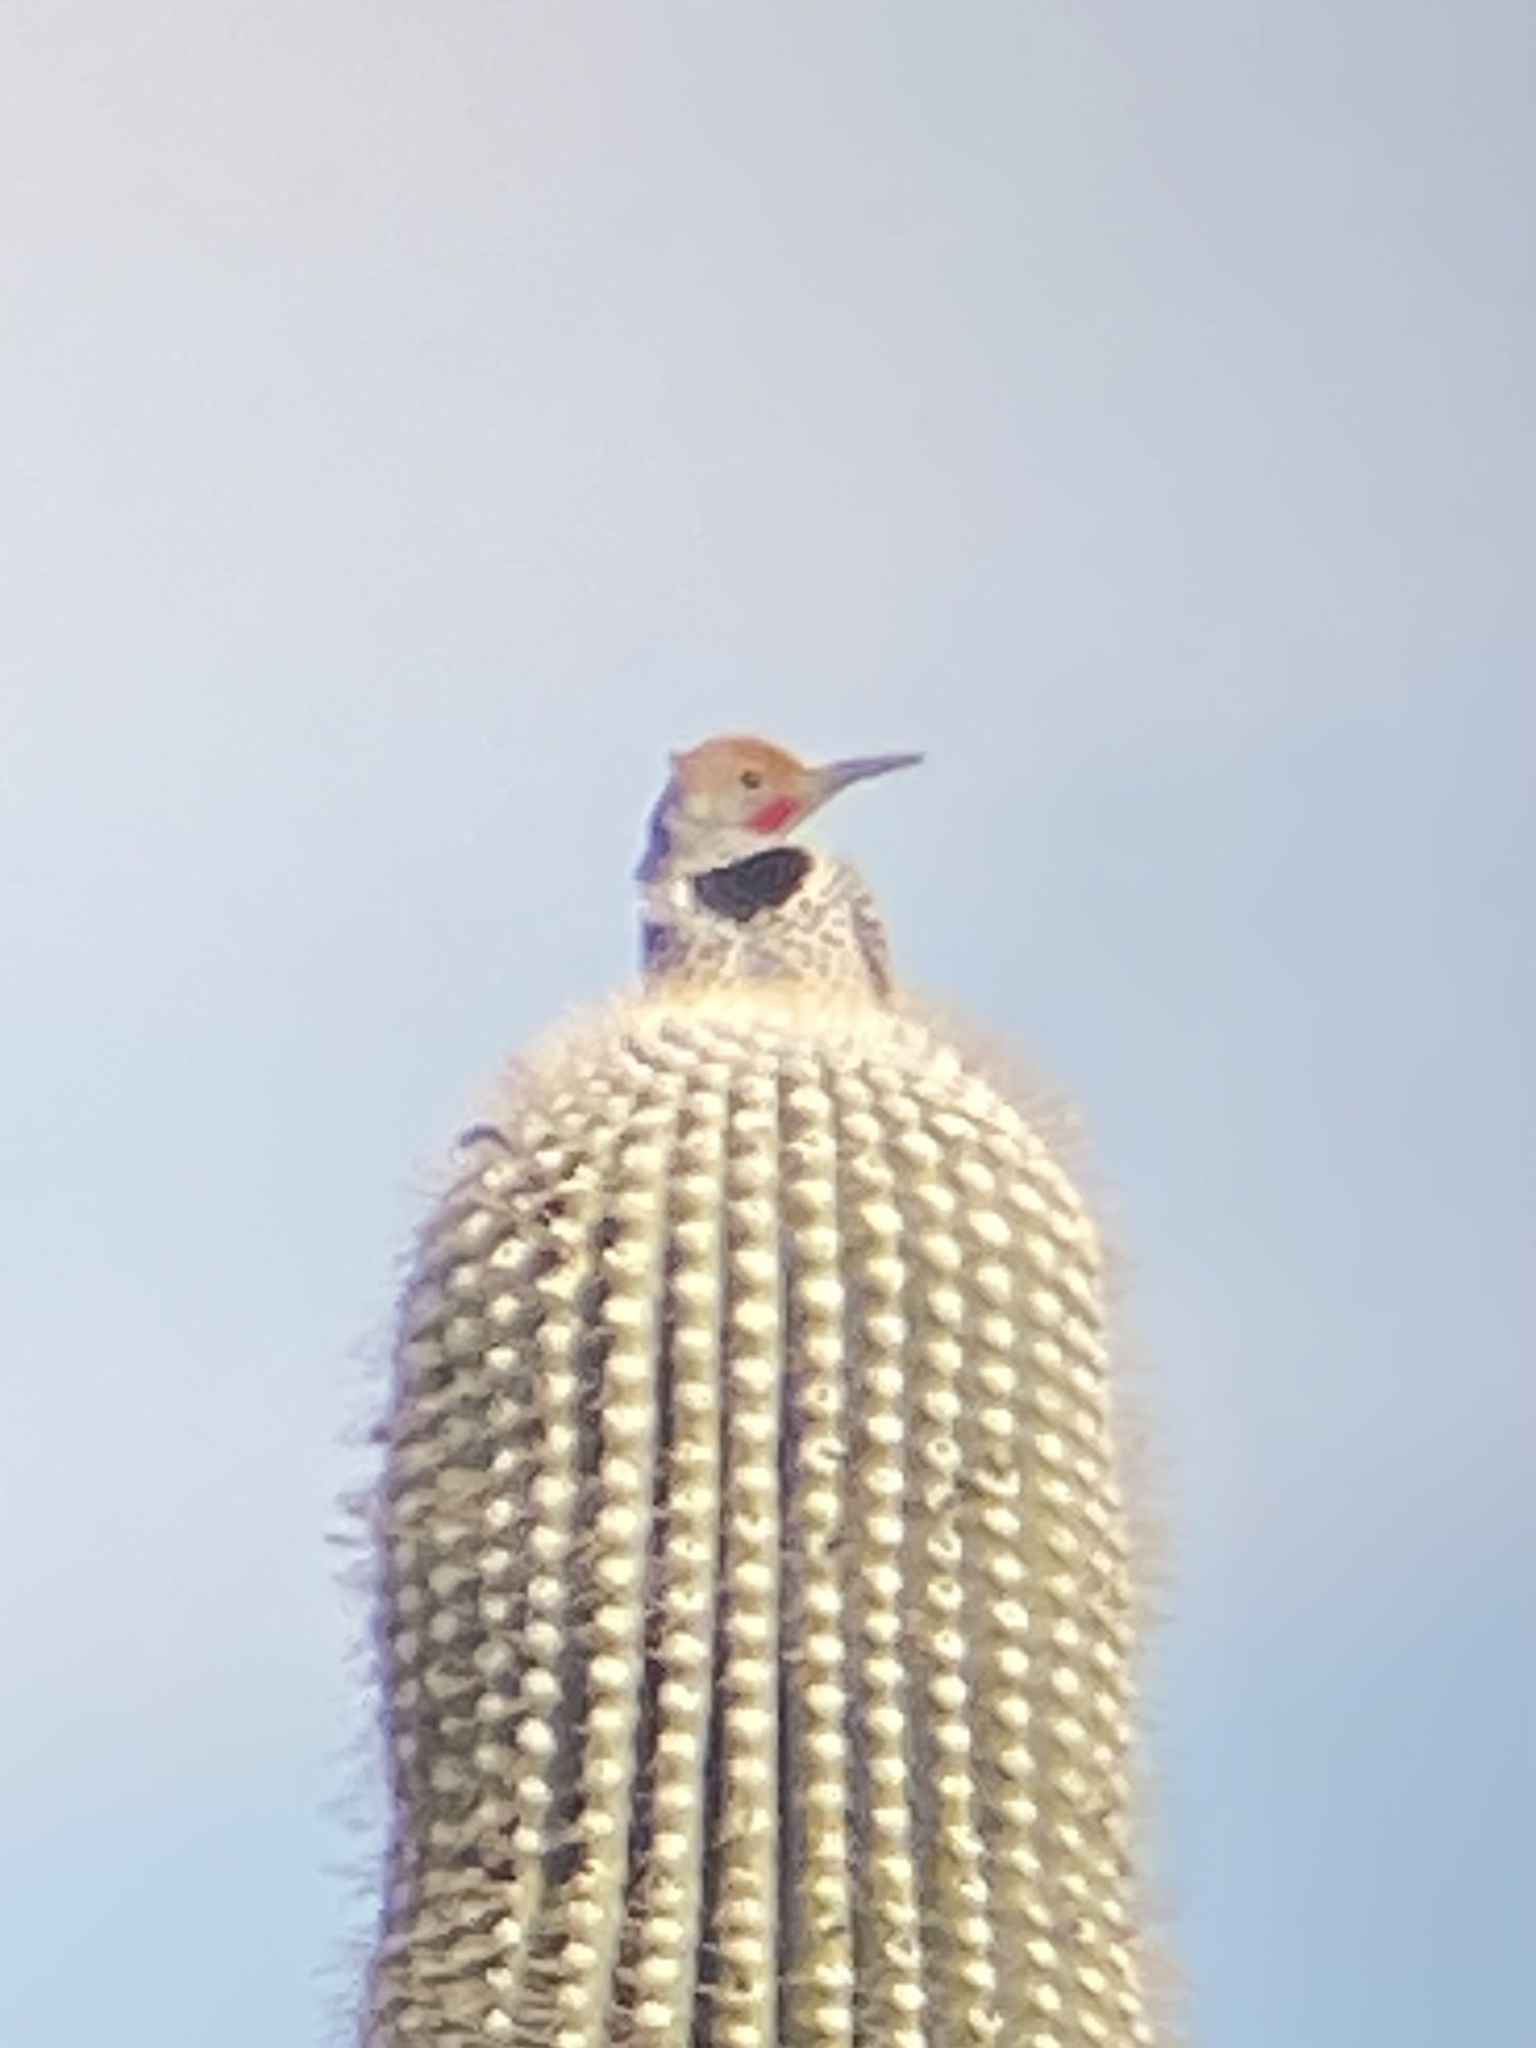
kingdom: Animalia
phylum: Chordata
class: Aves
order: Piciformes
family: Picidae
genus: Colaptes
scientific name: Colaptes chrysoides
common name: Gilded flicker
